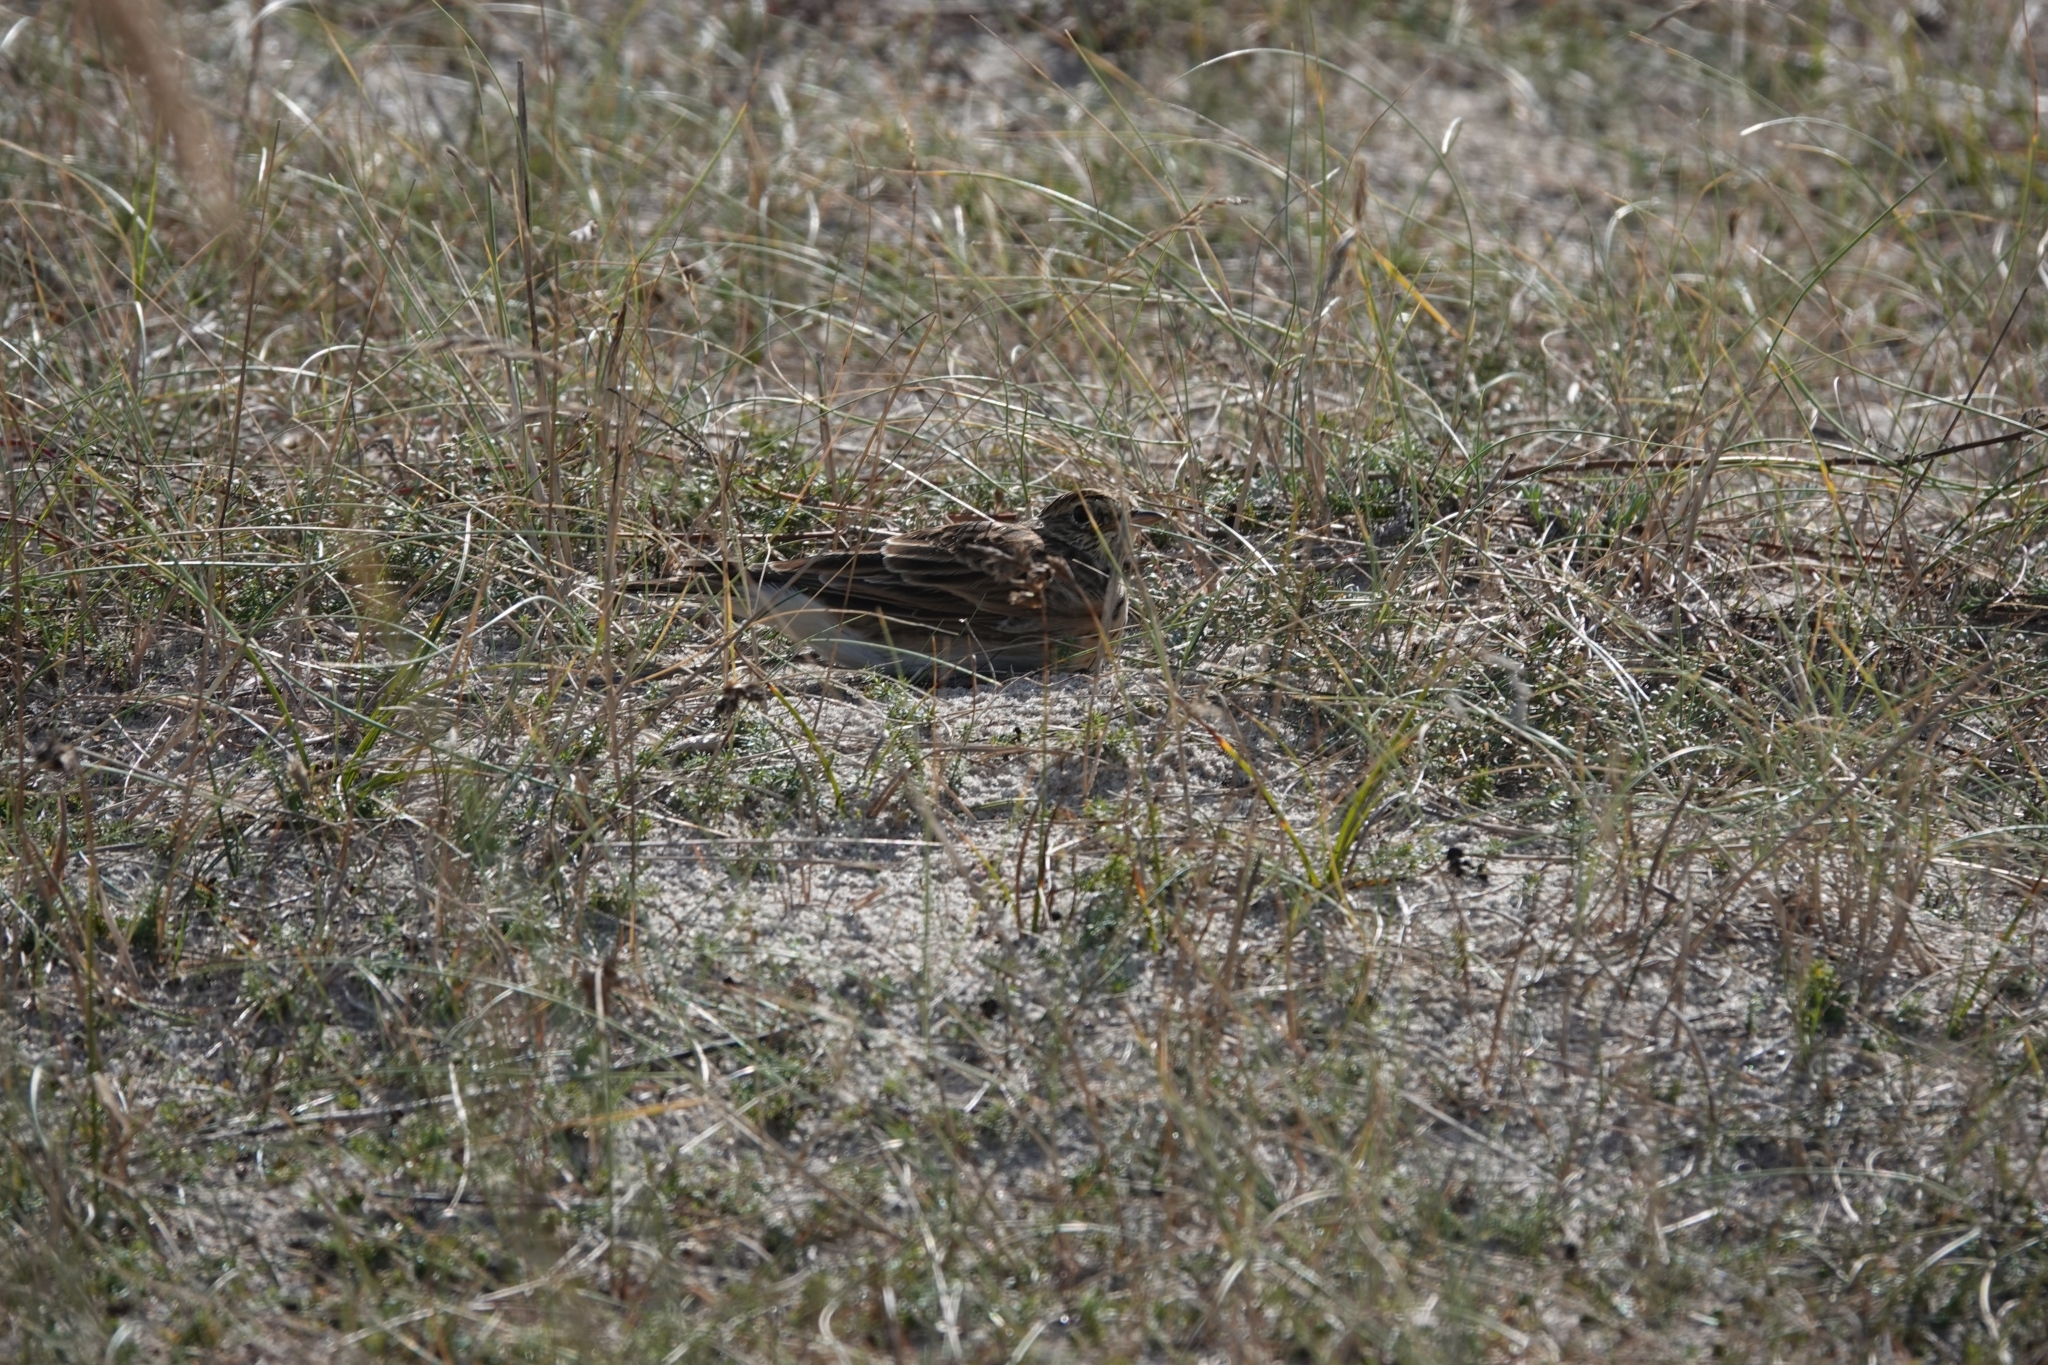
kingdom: Animalia
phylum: Chordata
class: Aves
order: Passeriformes
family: Alaudidae
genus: Alauda
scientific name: Alauda arvensis
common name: Eurasian skylark
